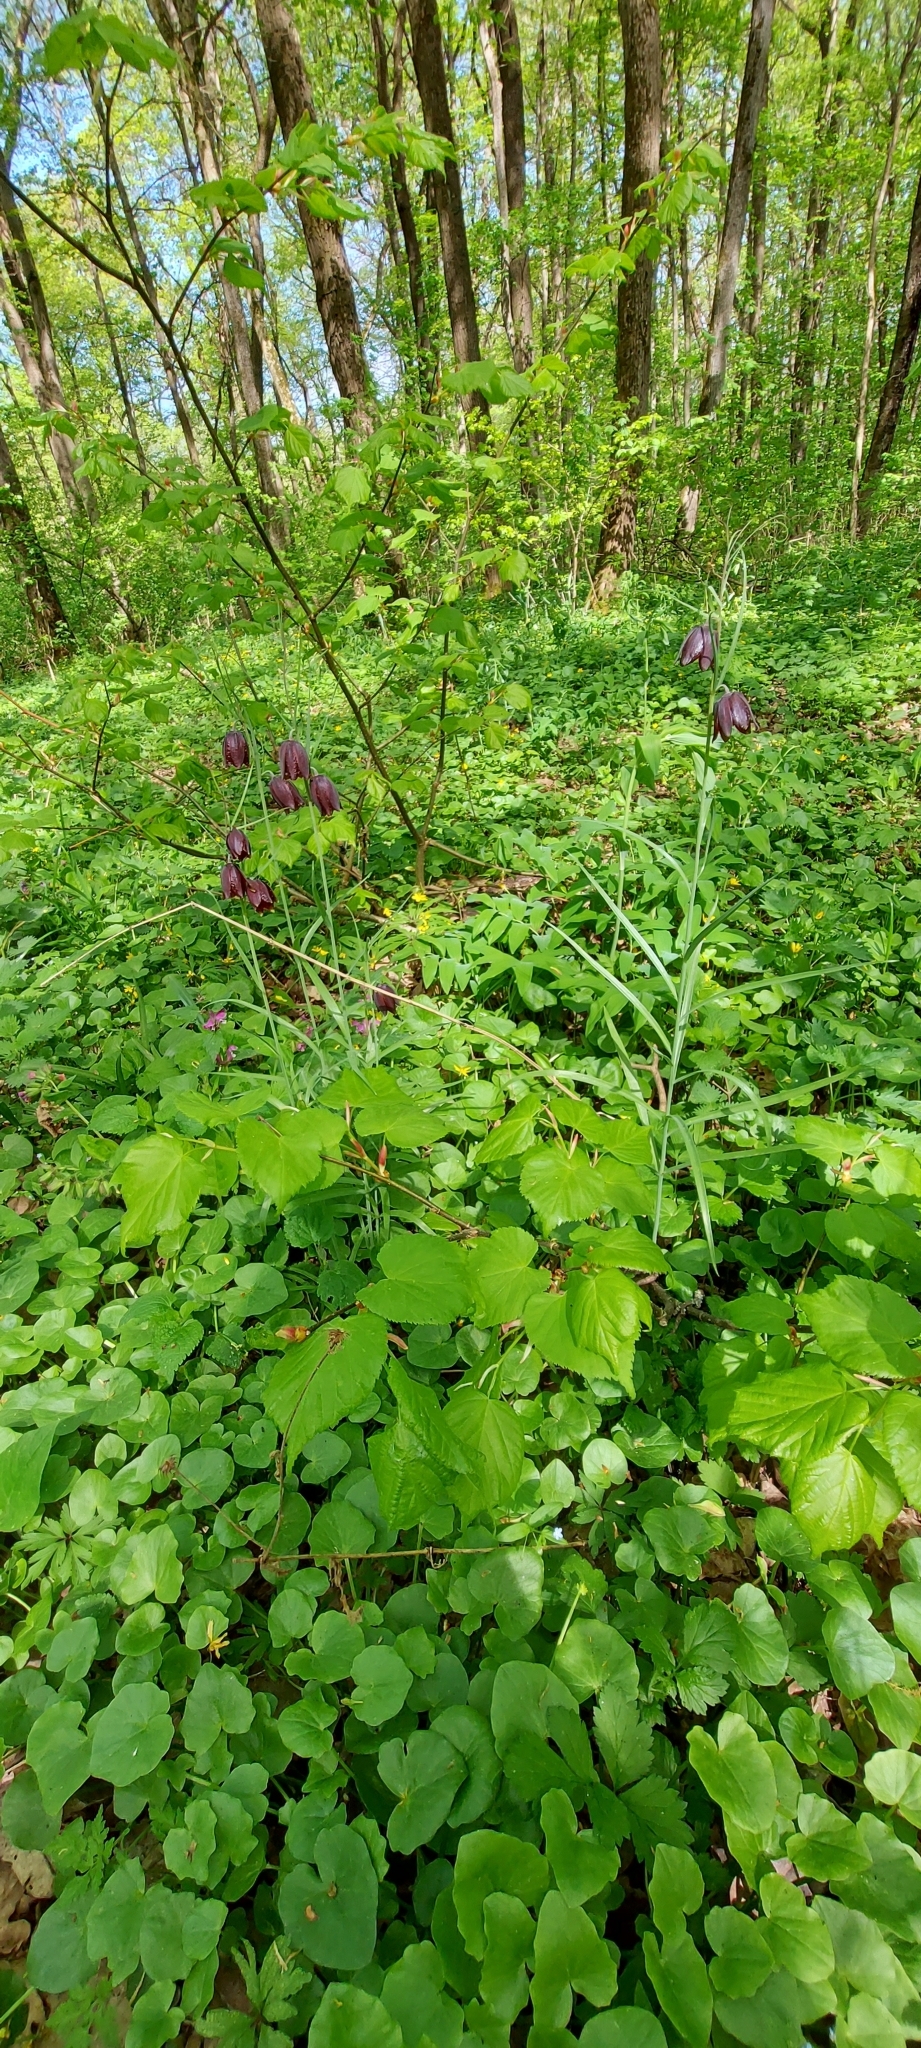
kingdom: Plantae
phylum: Tracheophyta
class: Liliopsida
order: Liliales
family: Liliaceae
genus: Fritillaria
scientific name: Fritillaria ruthenica
